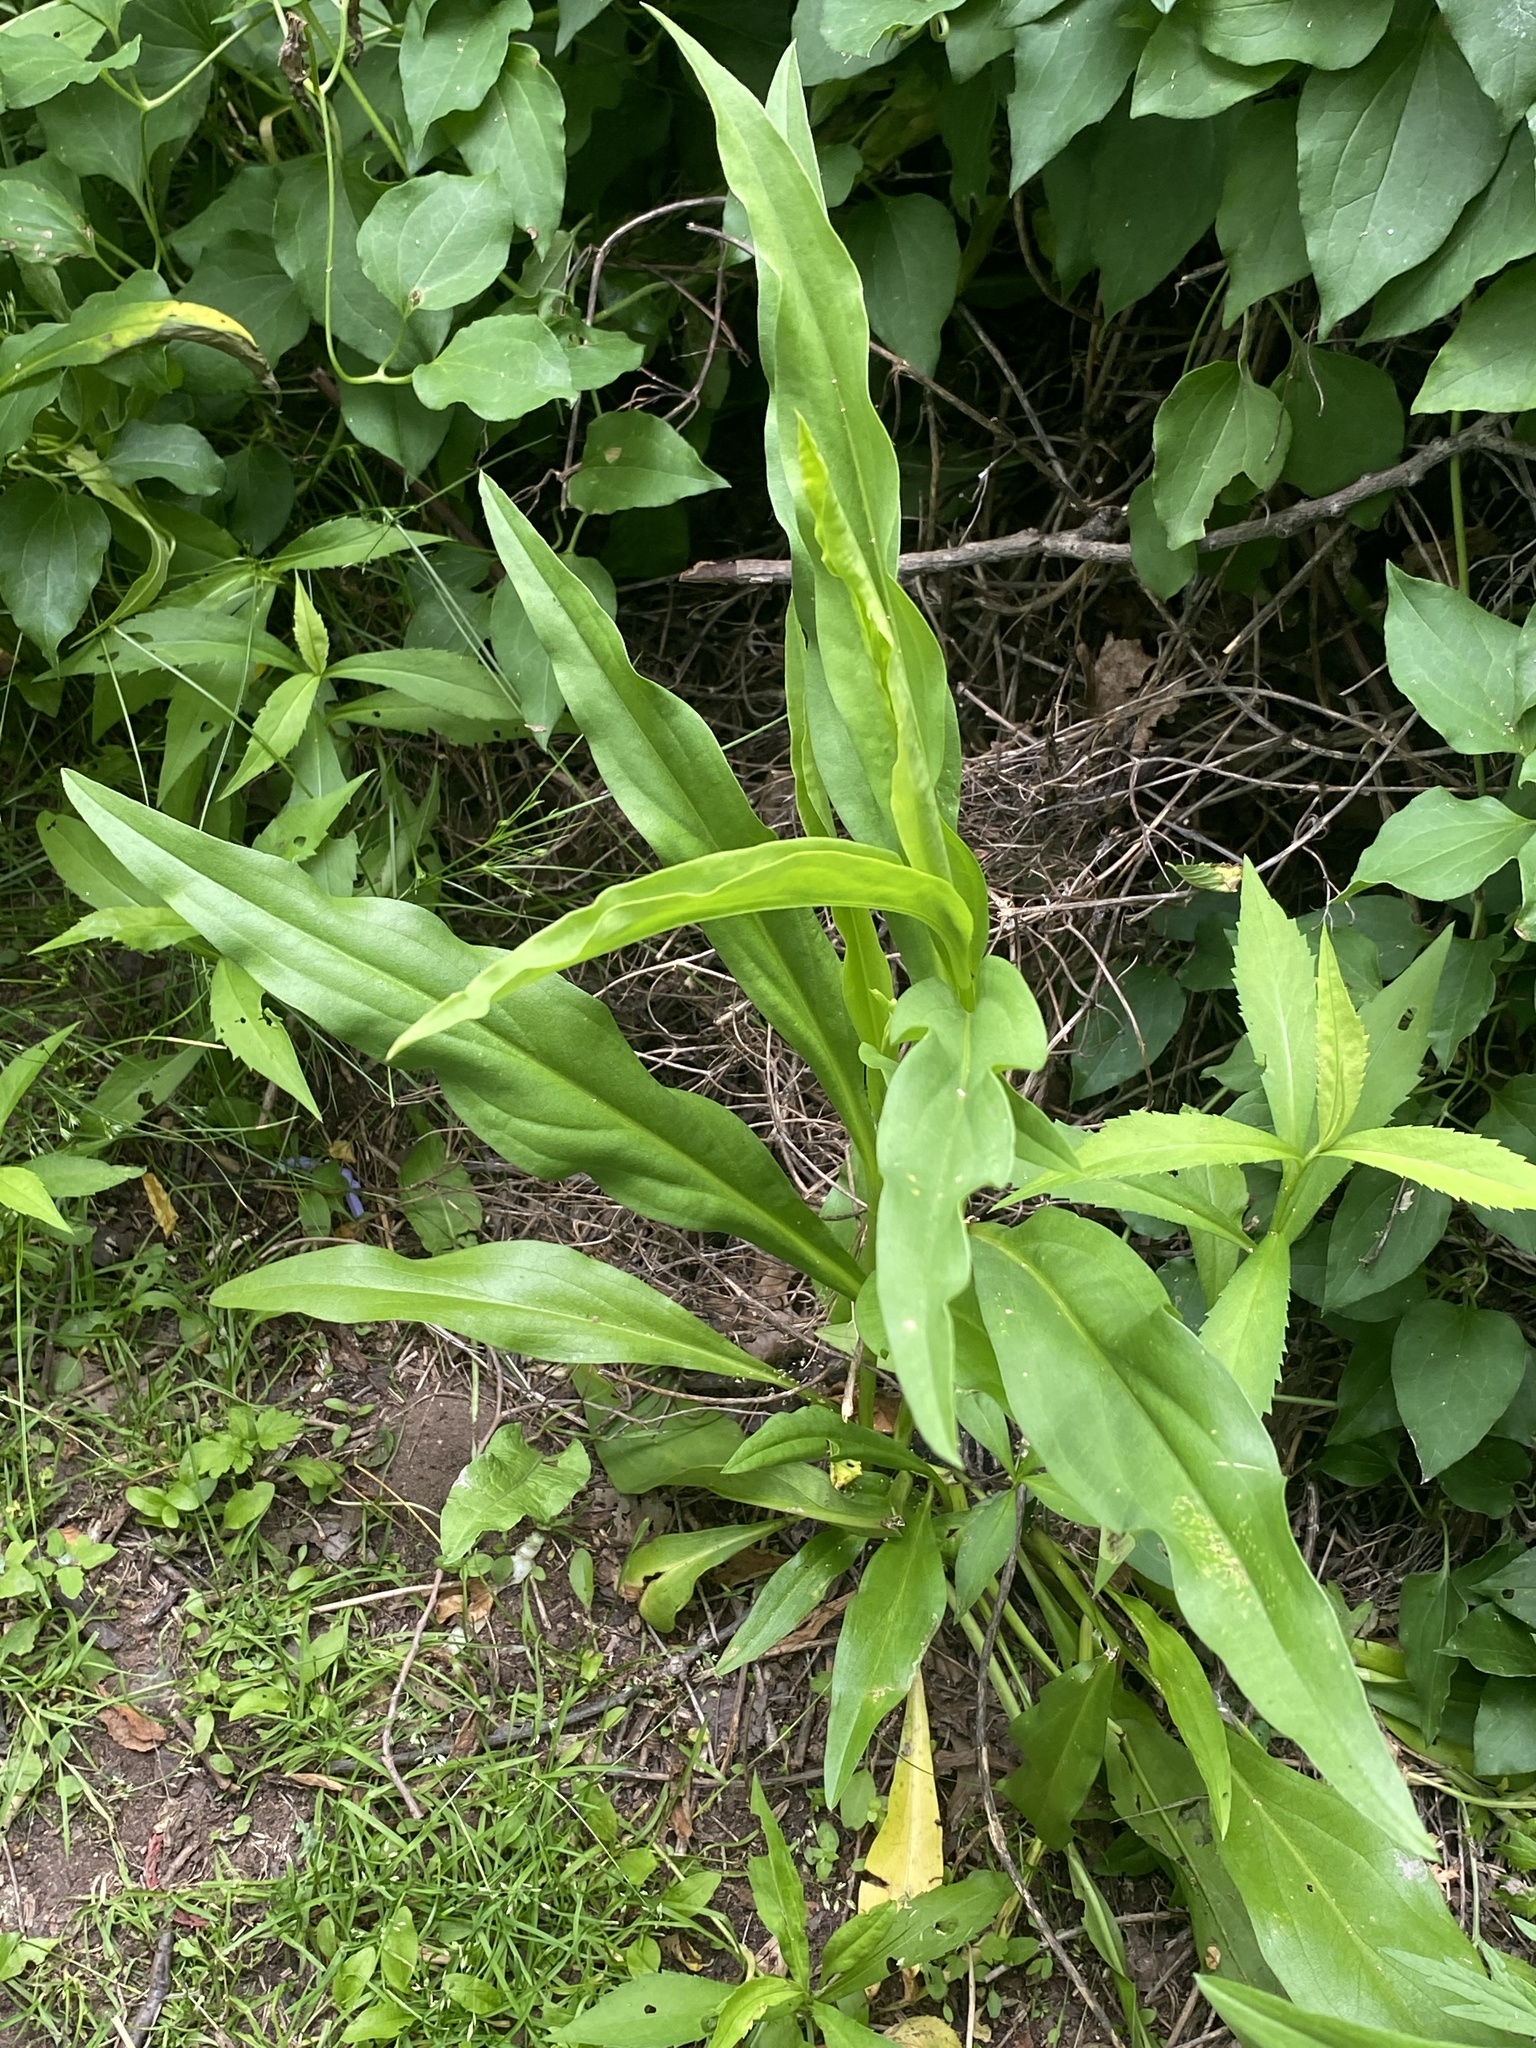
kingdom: Plantae
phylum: Tracheophyta
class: Magnoliopsida
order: Asterales
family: Asteraceae
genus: Solidago
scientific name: Solidago sempervirens
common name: Salt-marsh goldenrod
